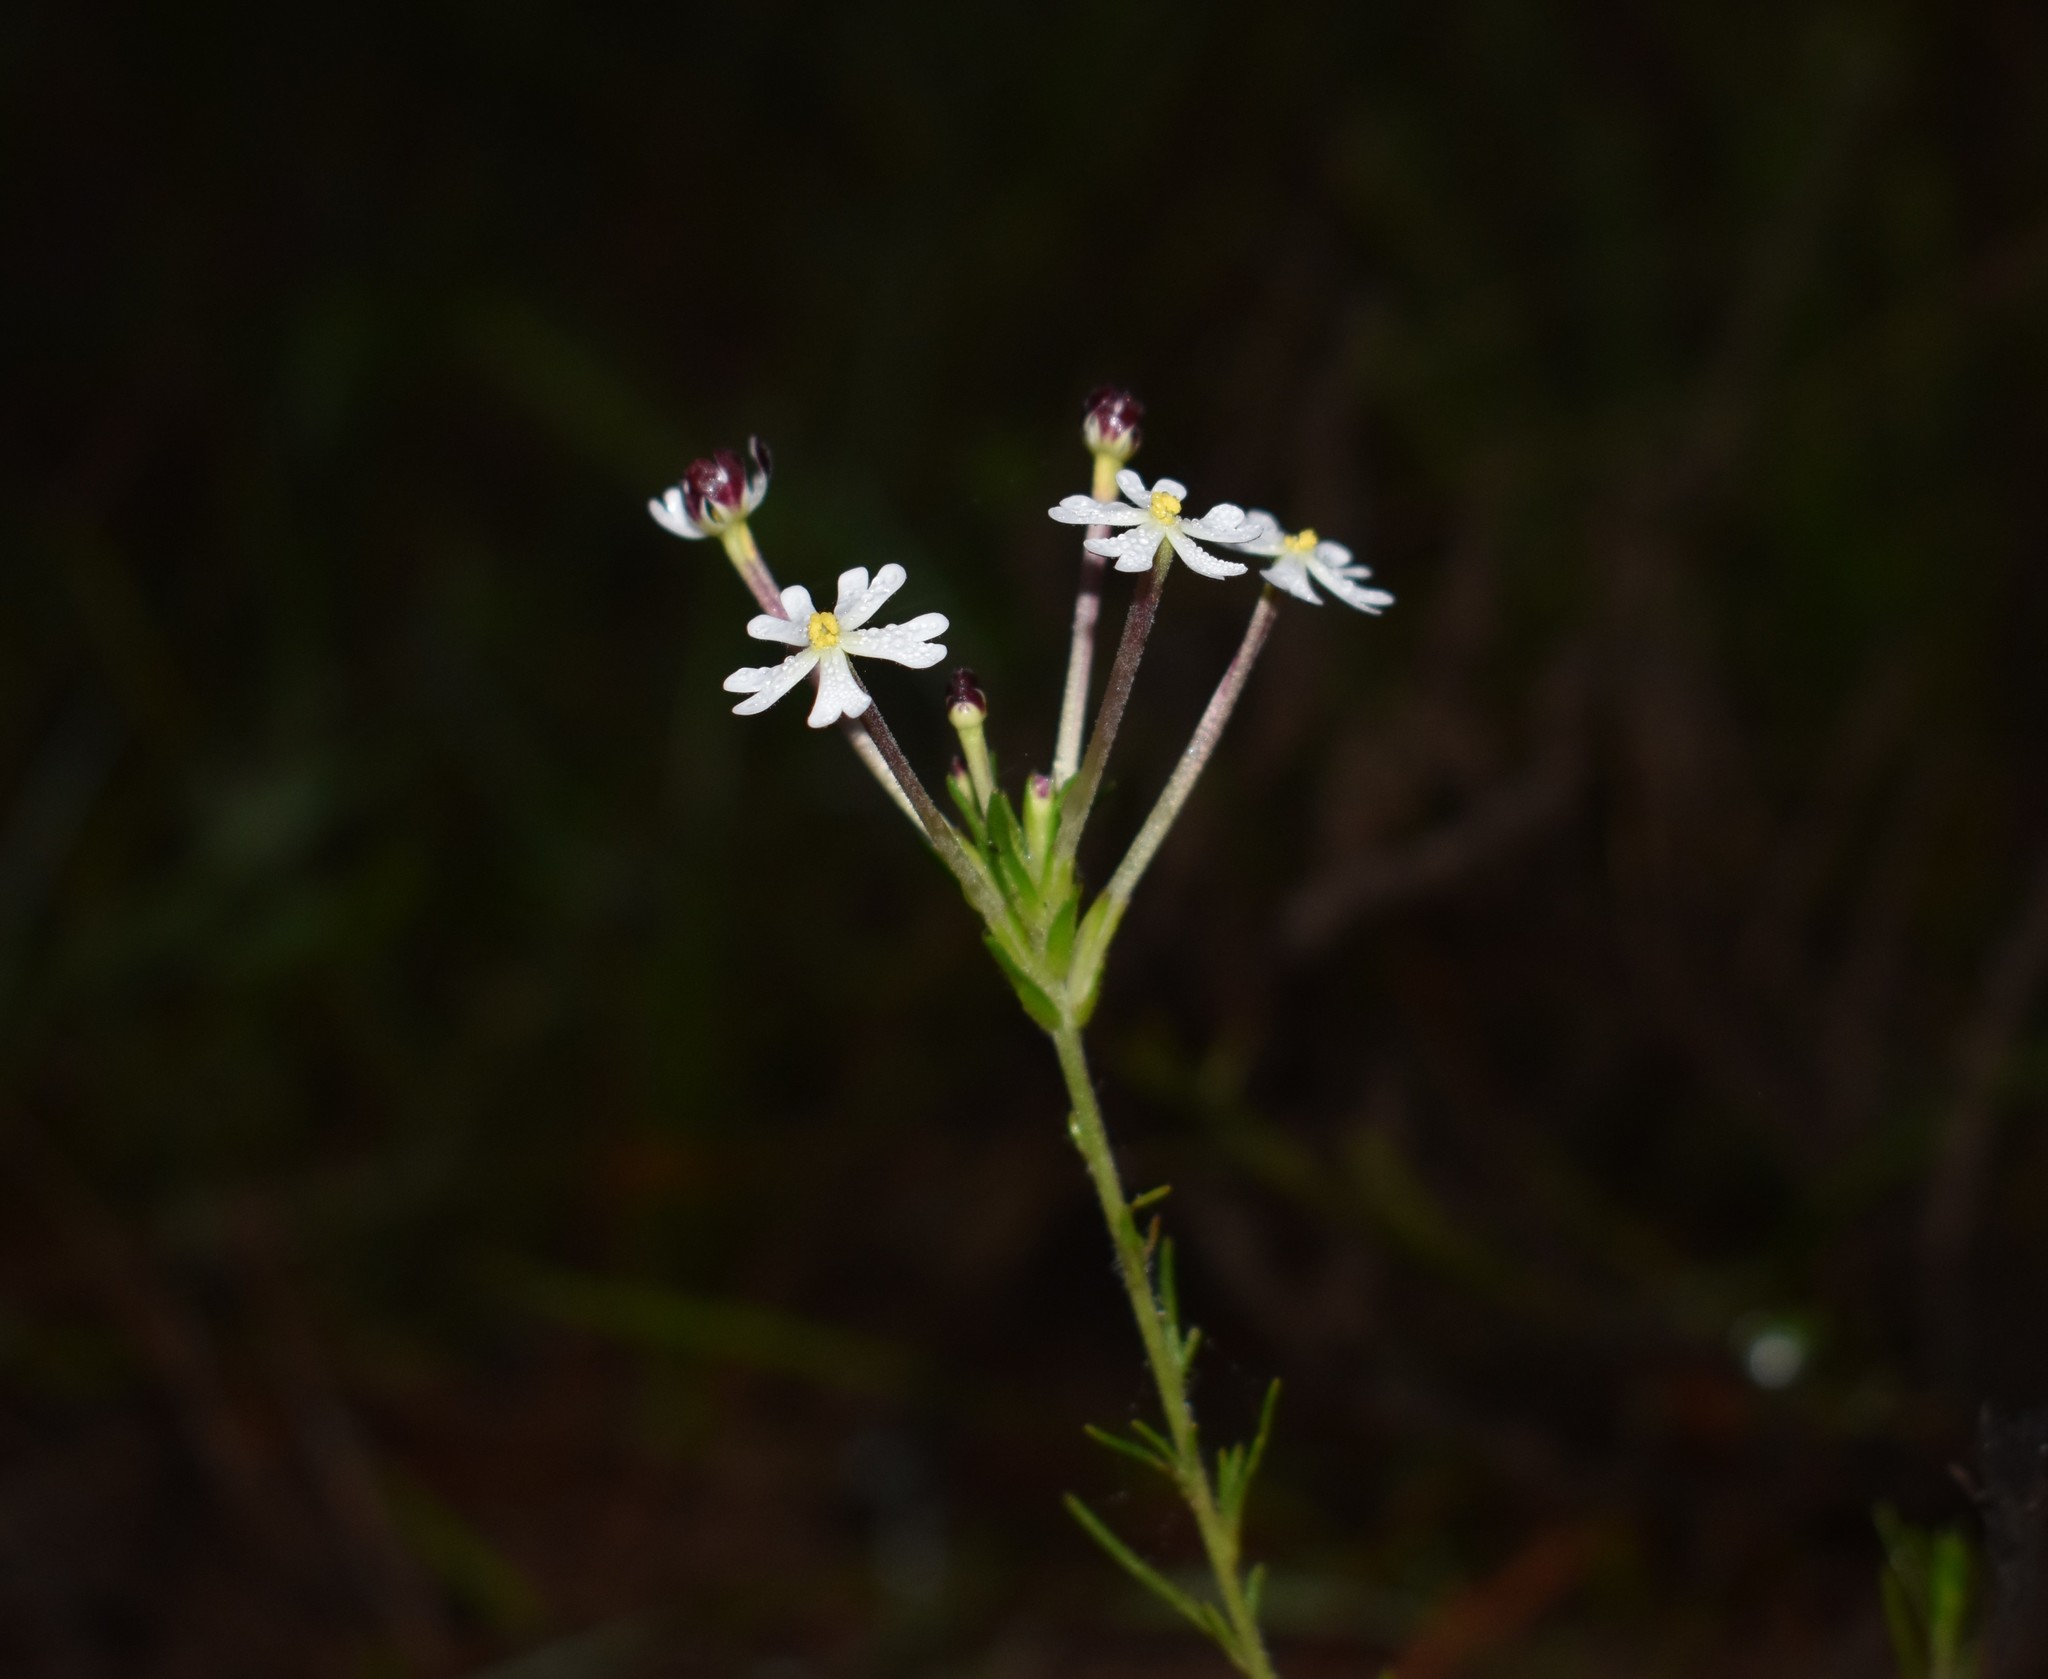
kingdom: Plantae
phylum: Tracheophyta
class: Magnoliopsida
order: Lamiales
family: Scrophulariaceae
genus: Zaluzianskya
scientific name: Zaluzianskya capensis
